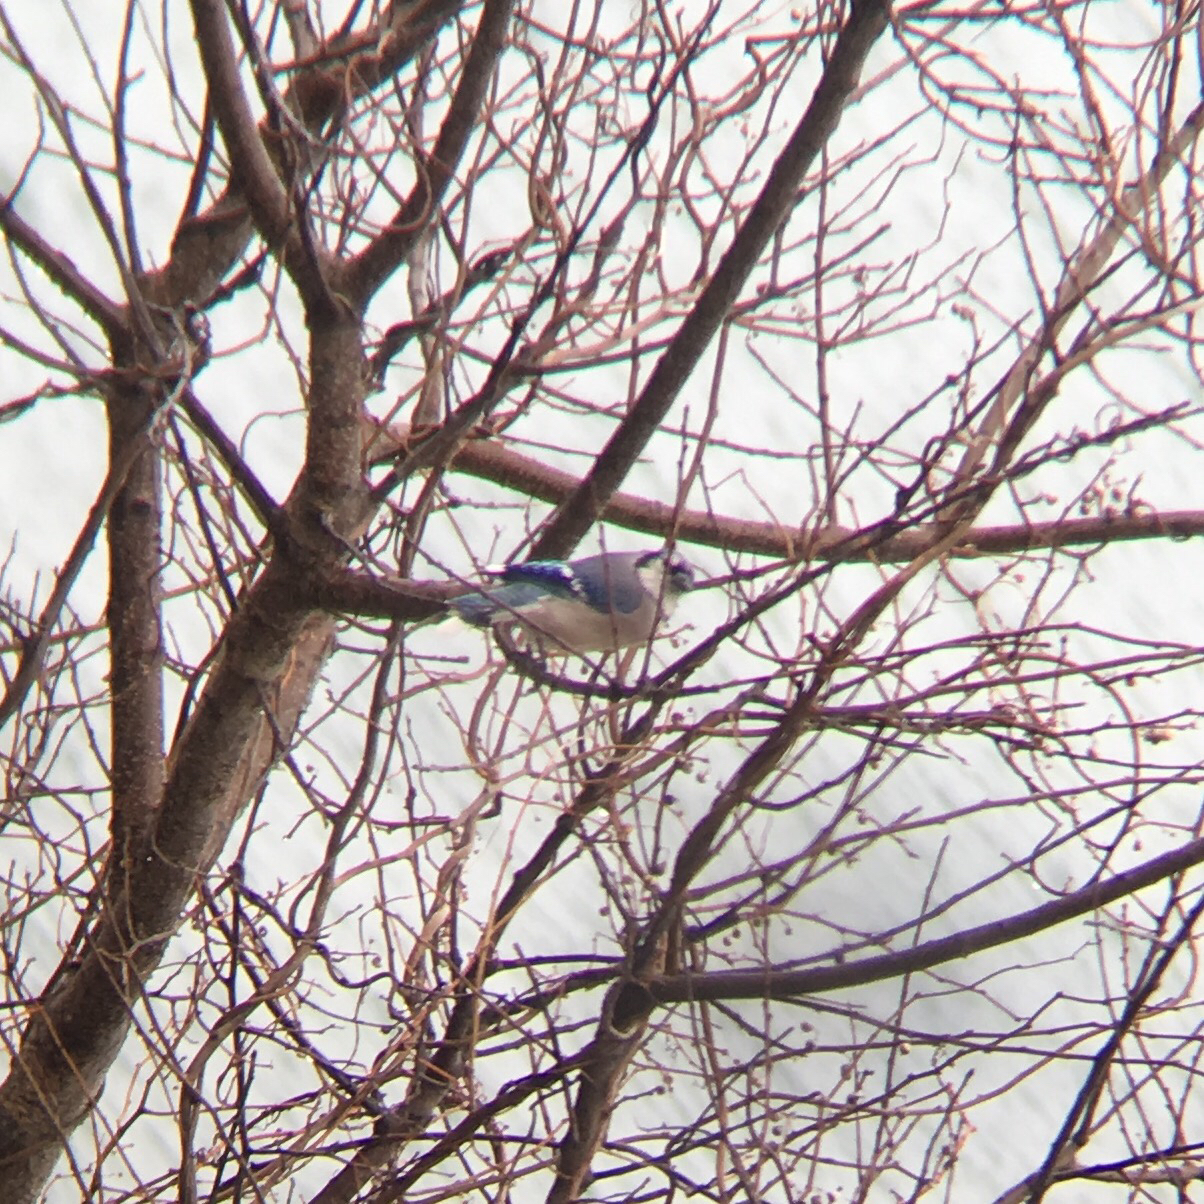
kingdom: Animalia
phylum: Chordata
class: Aves
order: Passeriformes
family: Corvidae
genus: Cyanocitta
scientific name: Cyanocitta cristata
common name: Blue jay
